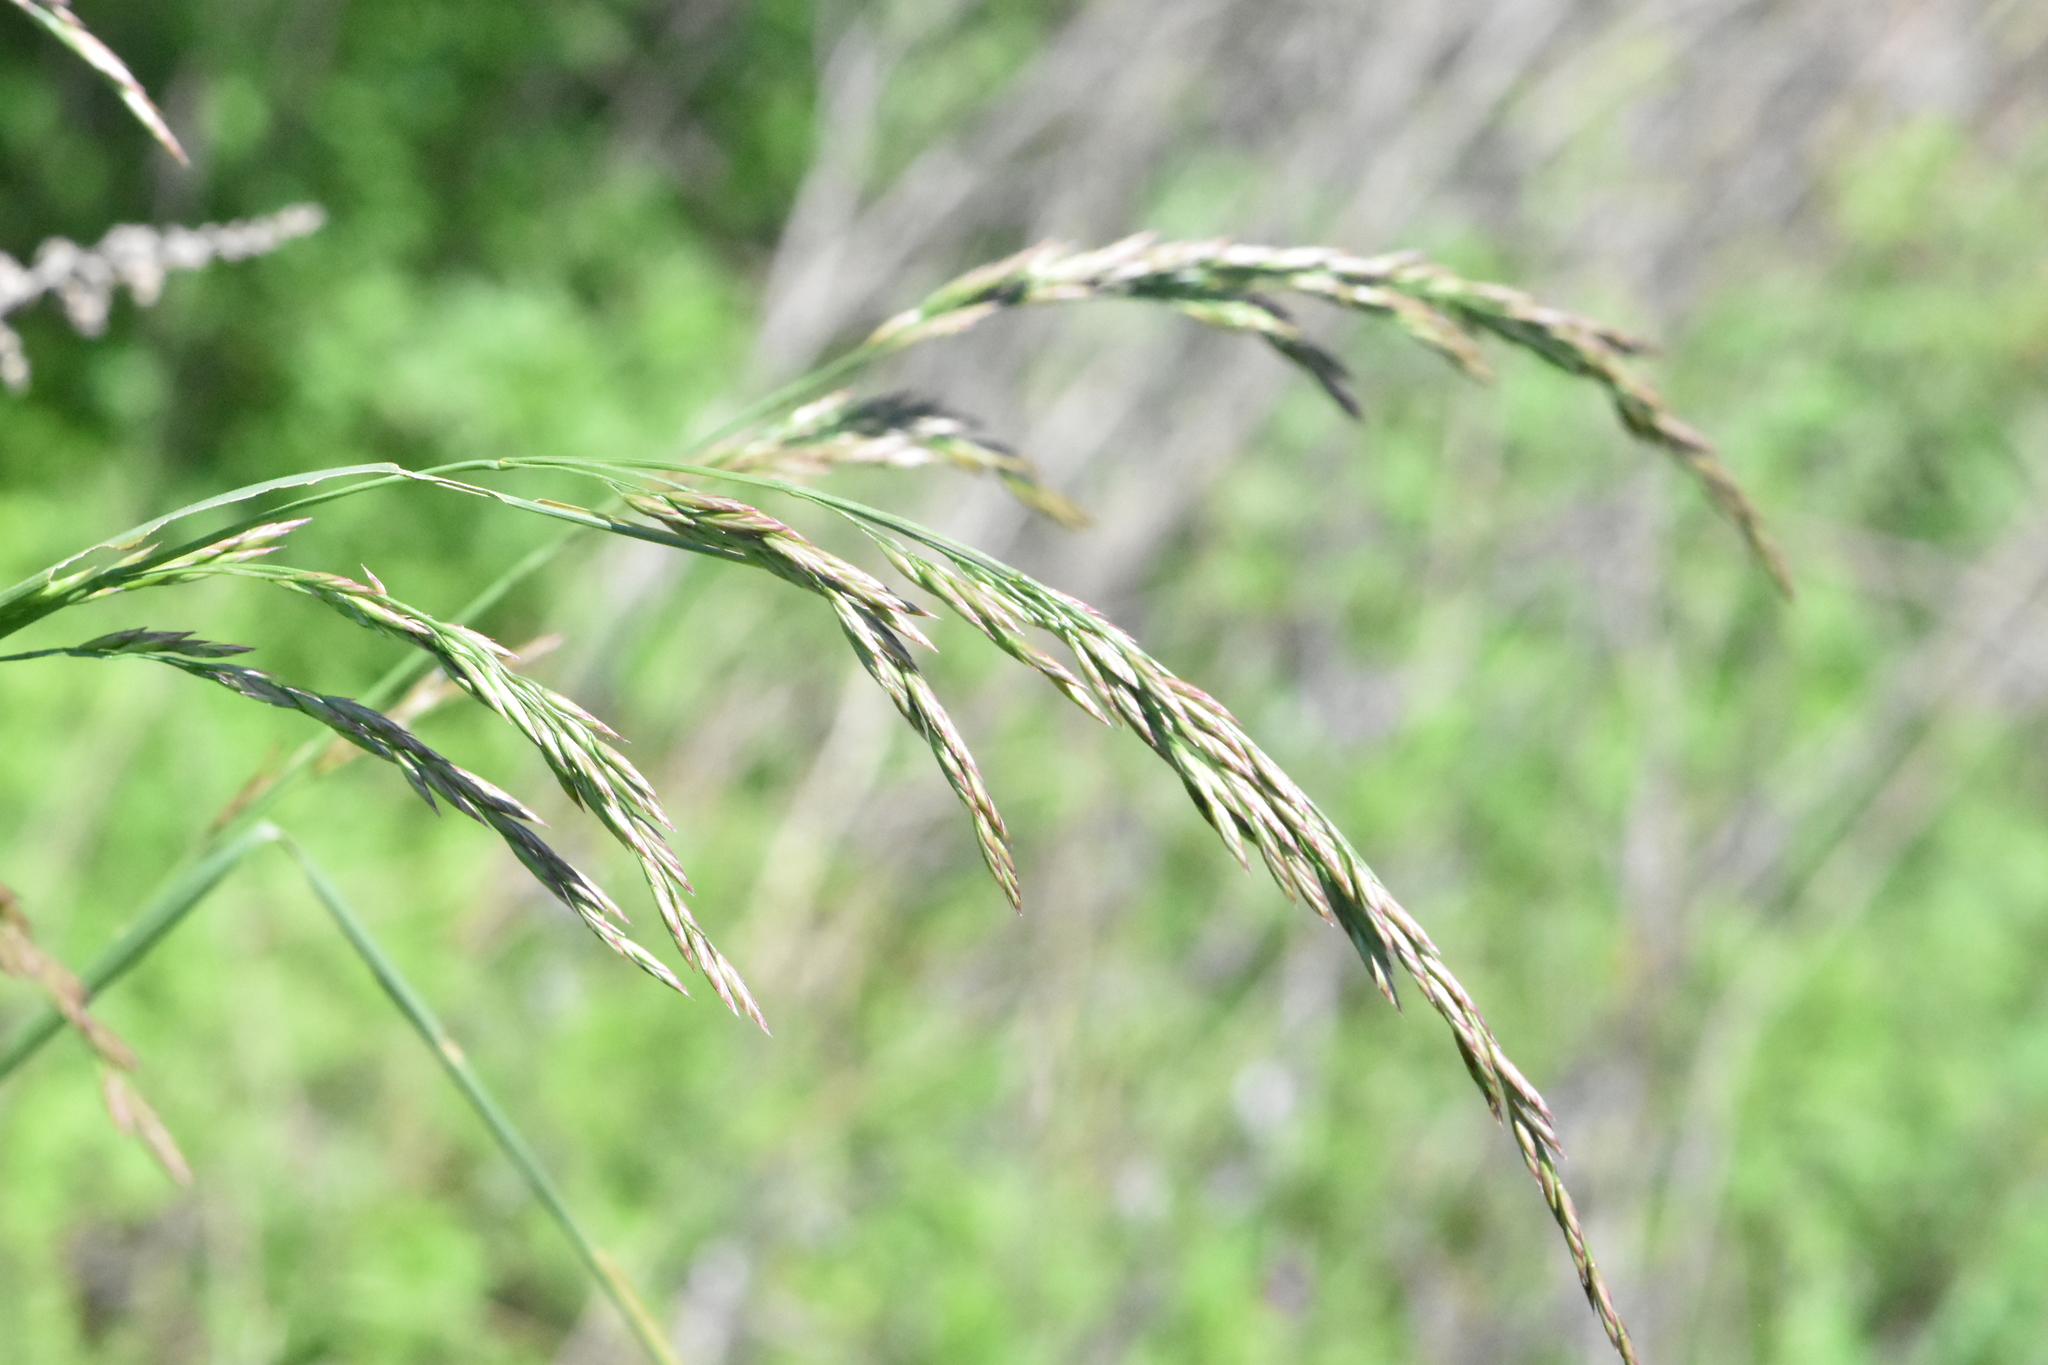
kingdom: Plantae
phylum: Tracheophyta
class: Liliopsida
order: Poales
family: Poaceae
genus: Lolium
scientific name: Lolium arundinaceum
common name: Reed fescue
